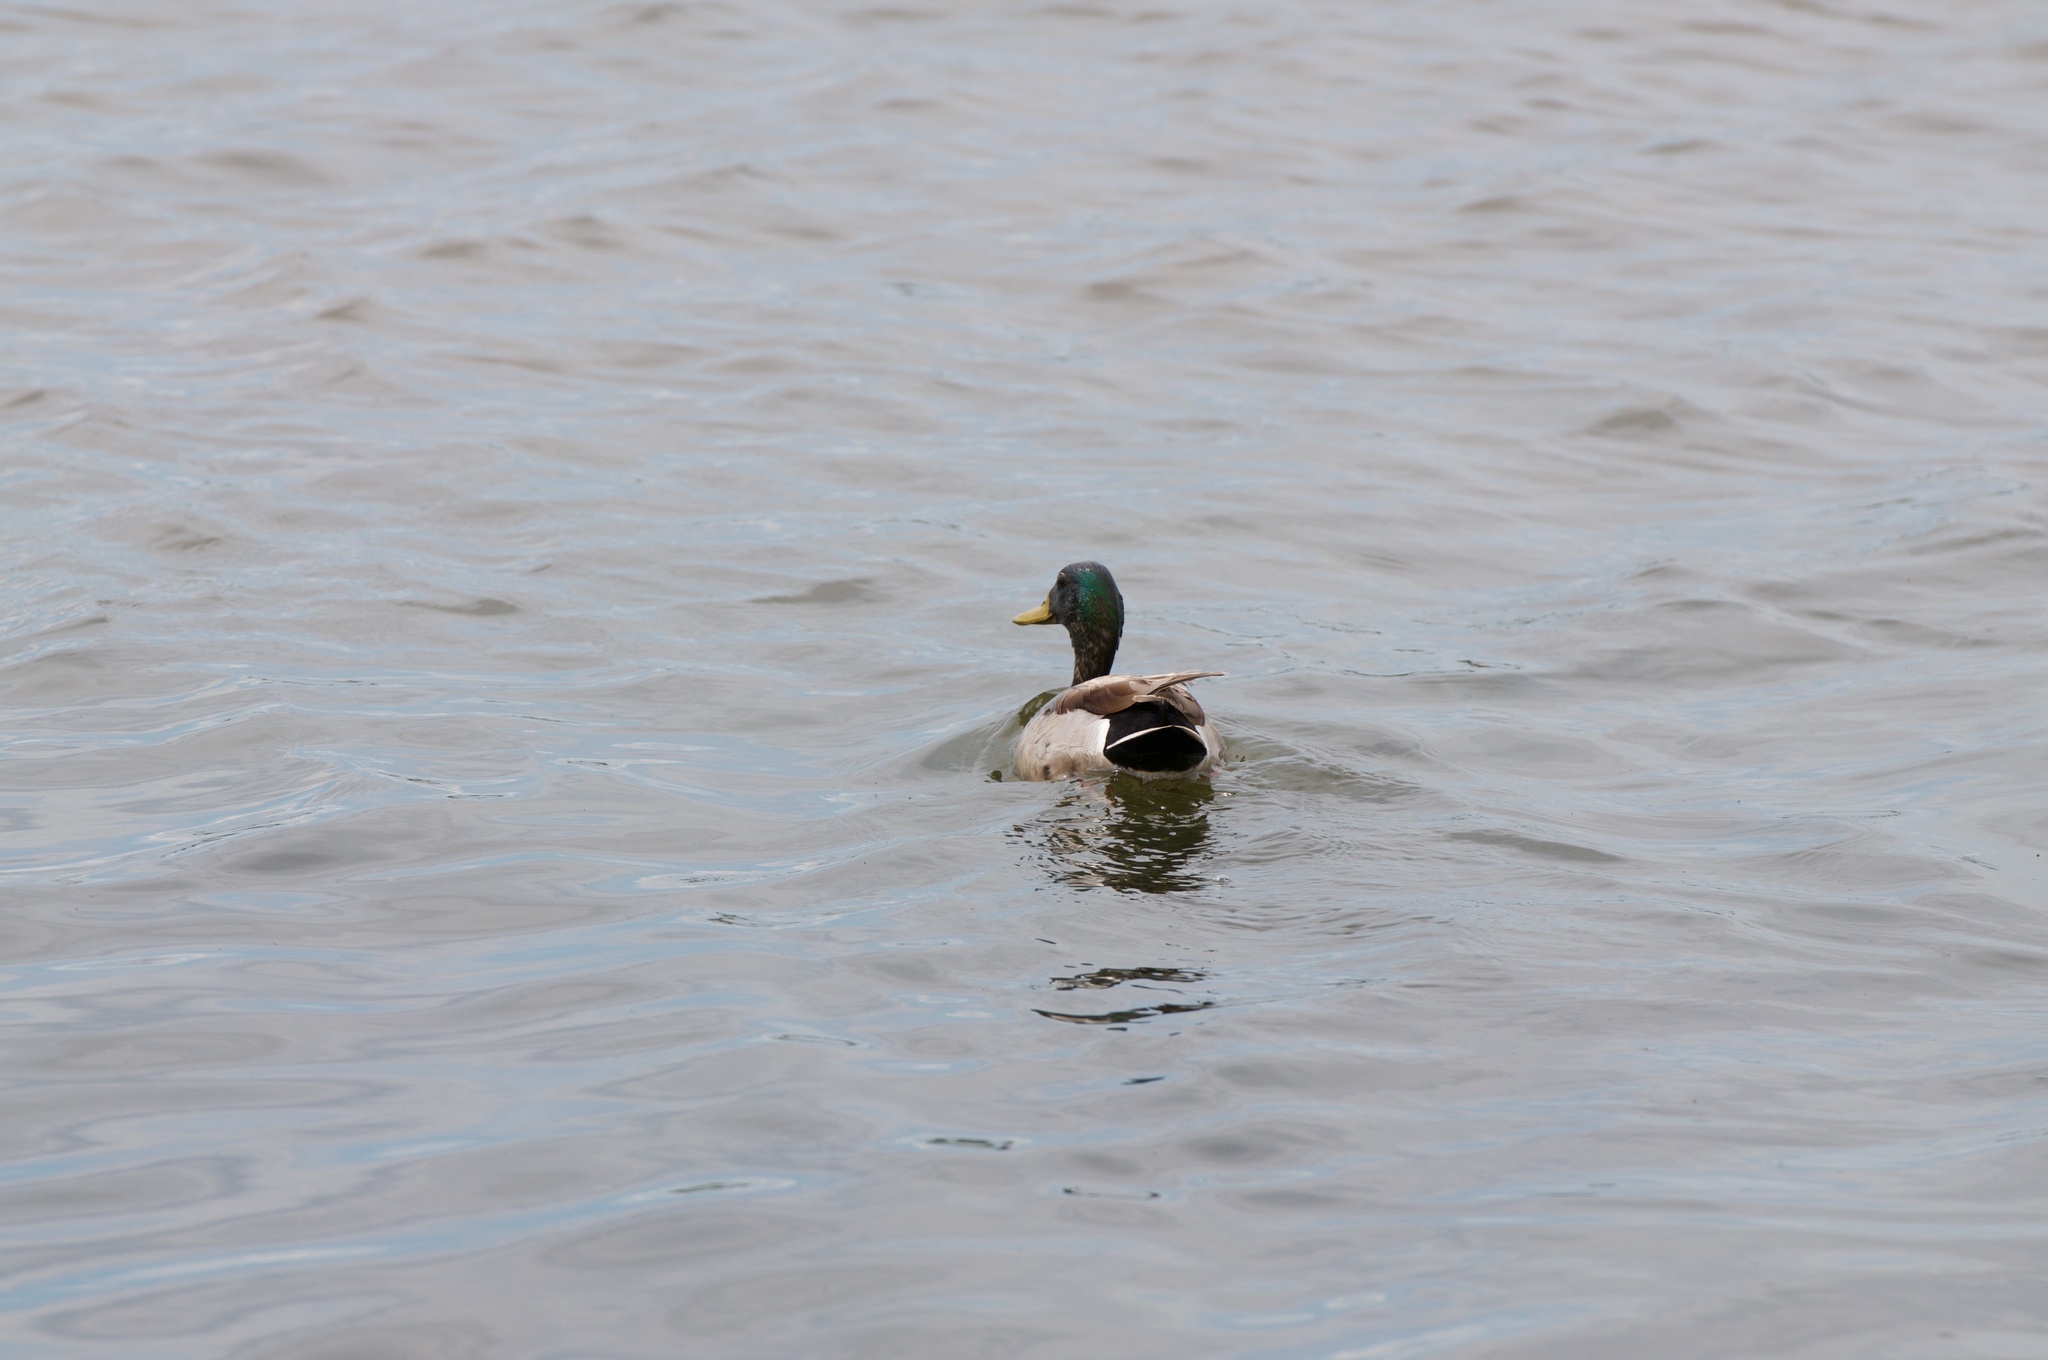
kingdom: Animalia
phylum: Chordata
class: Aves
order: Anseriformes
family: Anatidae
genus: Anas
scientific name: Anas platyrhynchos
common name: Mallard
